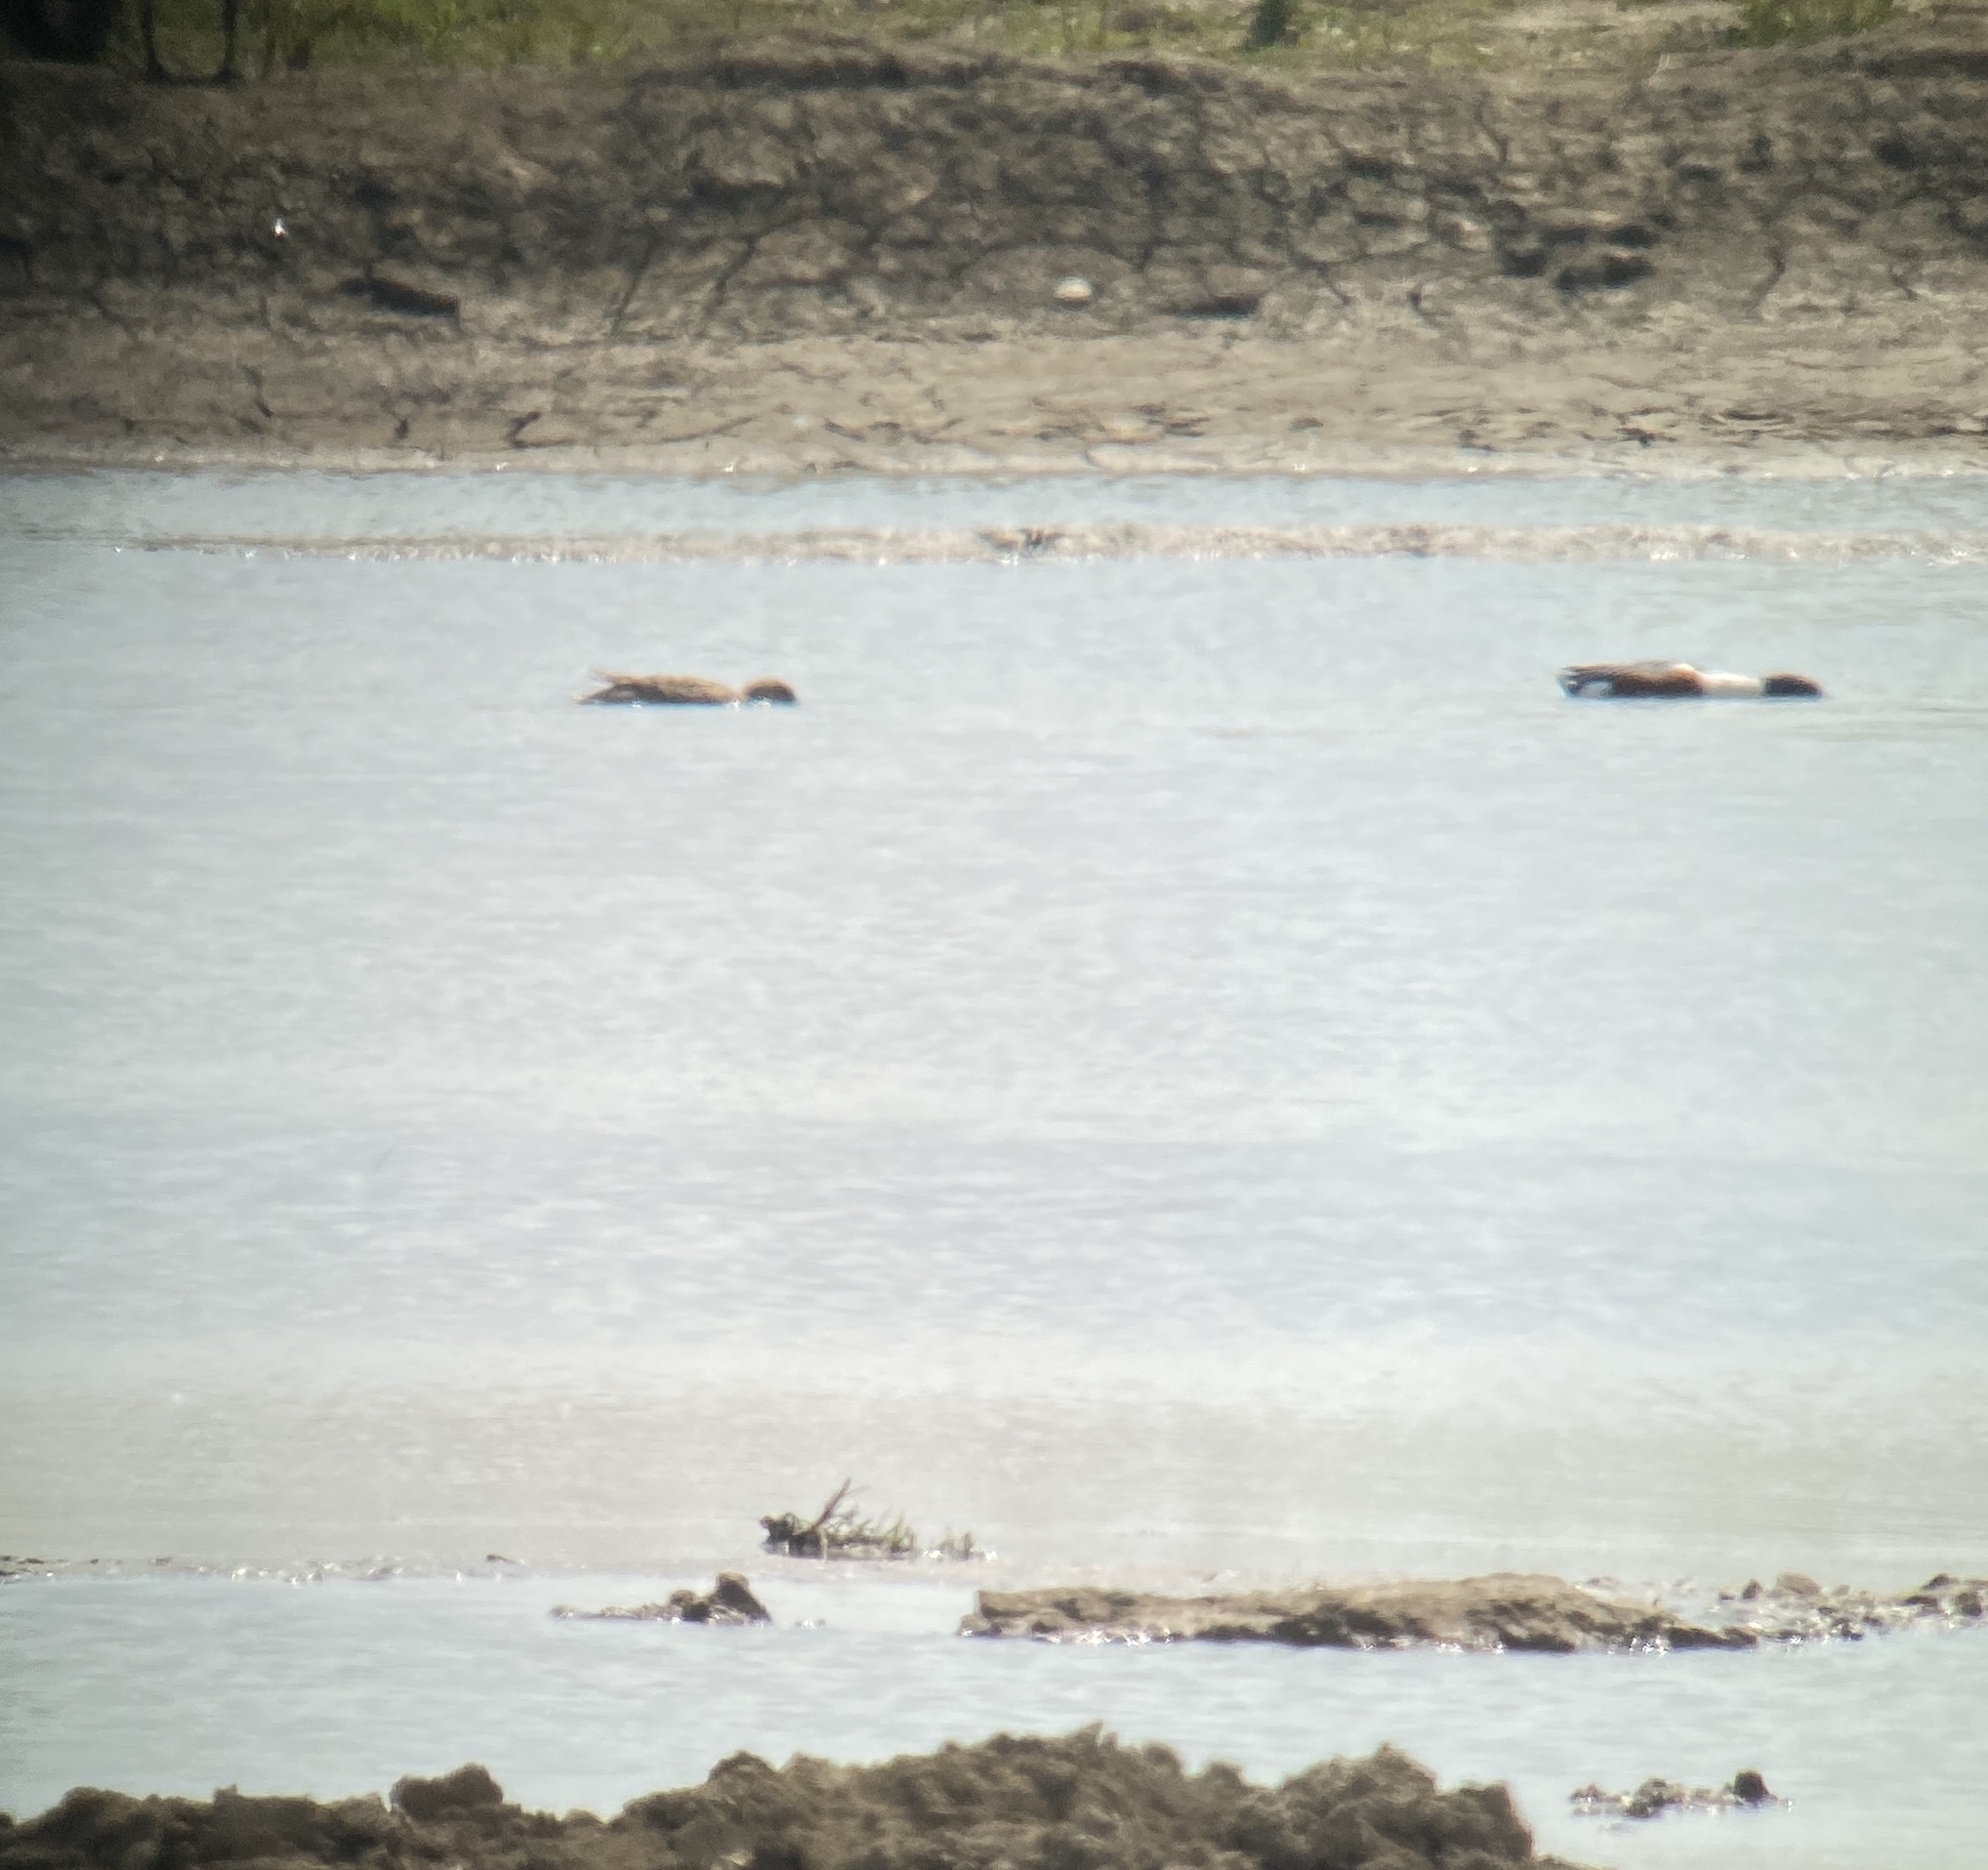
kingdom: Animalia
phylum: Chordata
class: Aves
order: Anseriformes
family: Anatidae
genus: Spatula
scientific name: Spatula clypeata
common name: Northern shoveler
